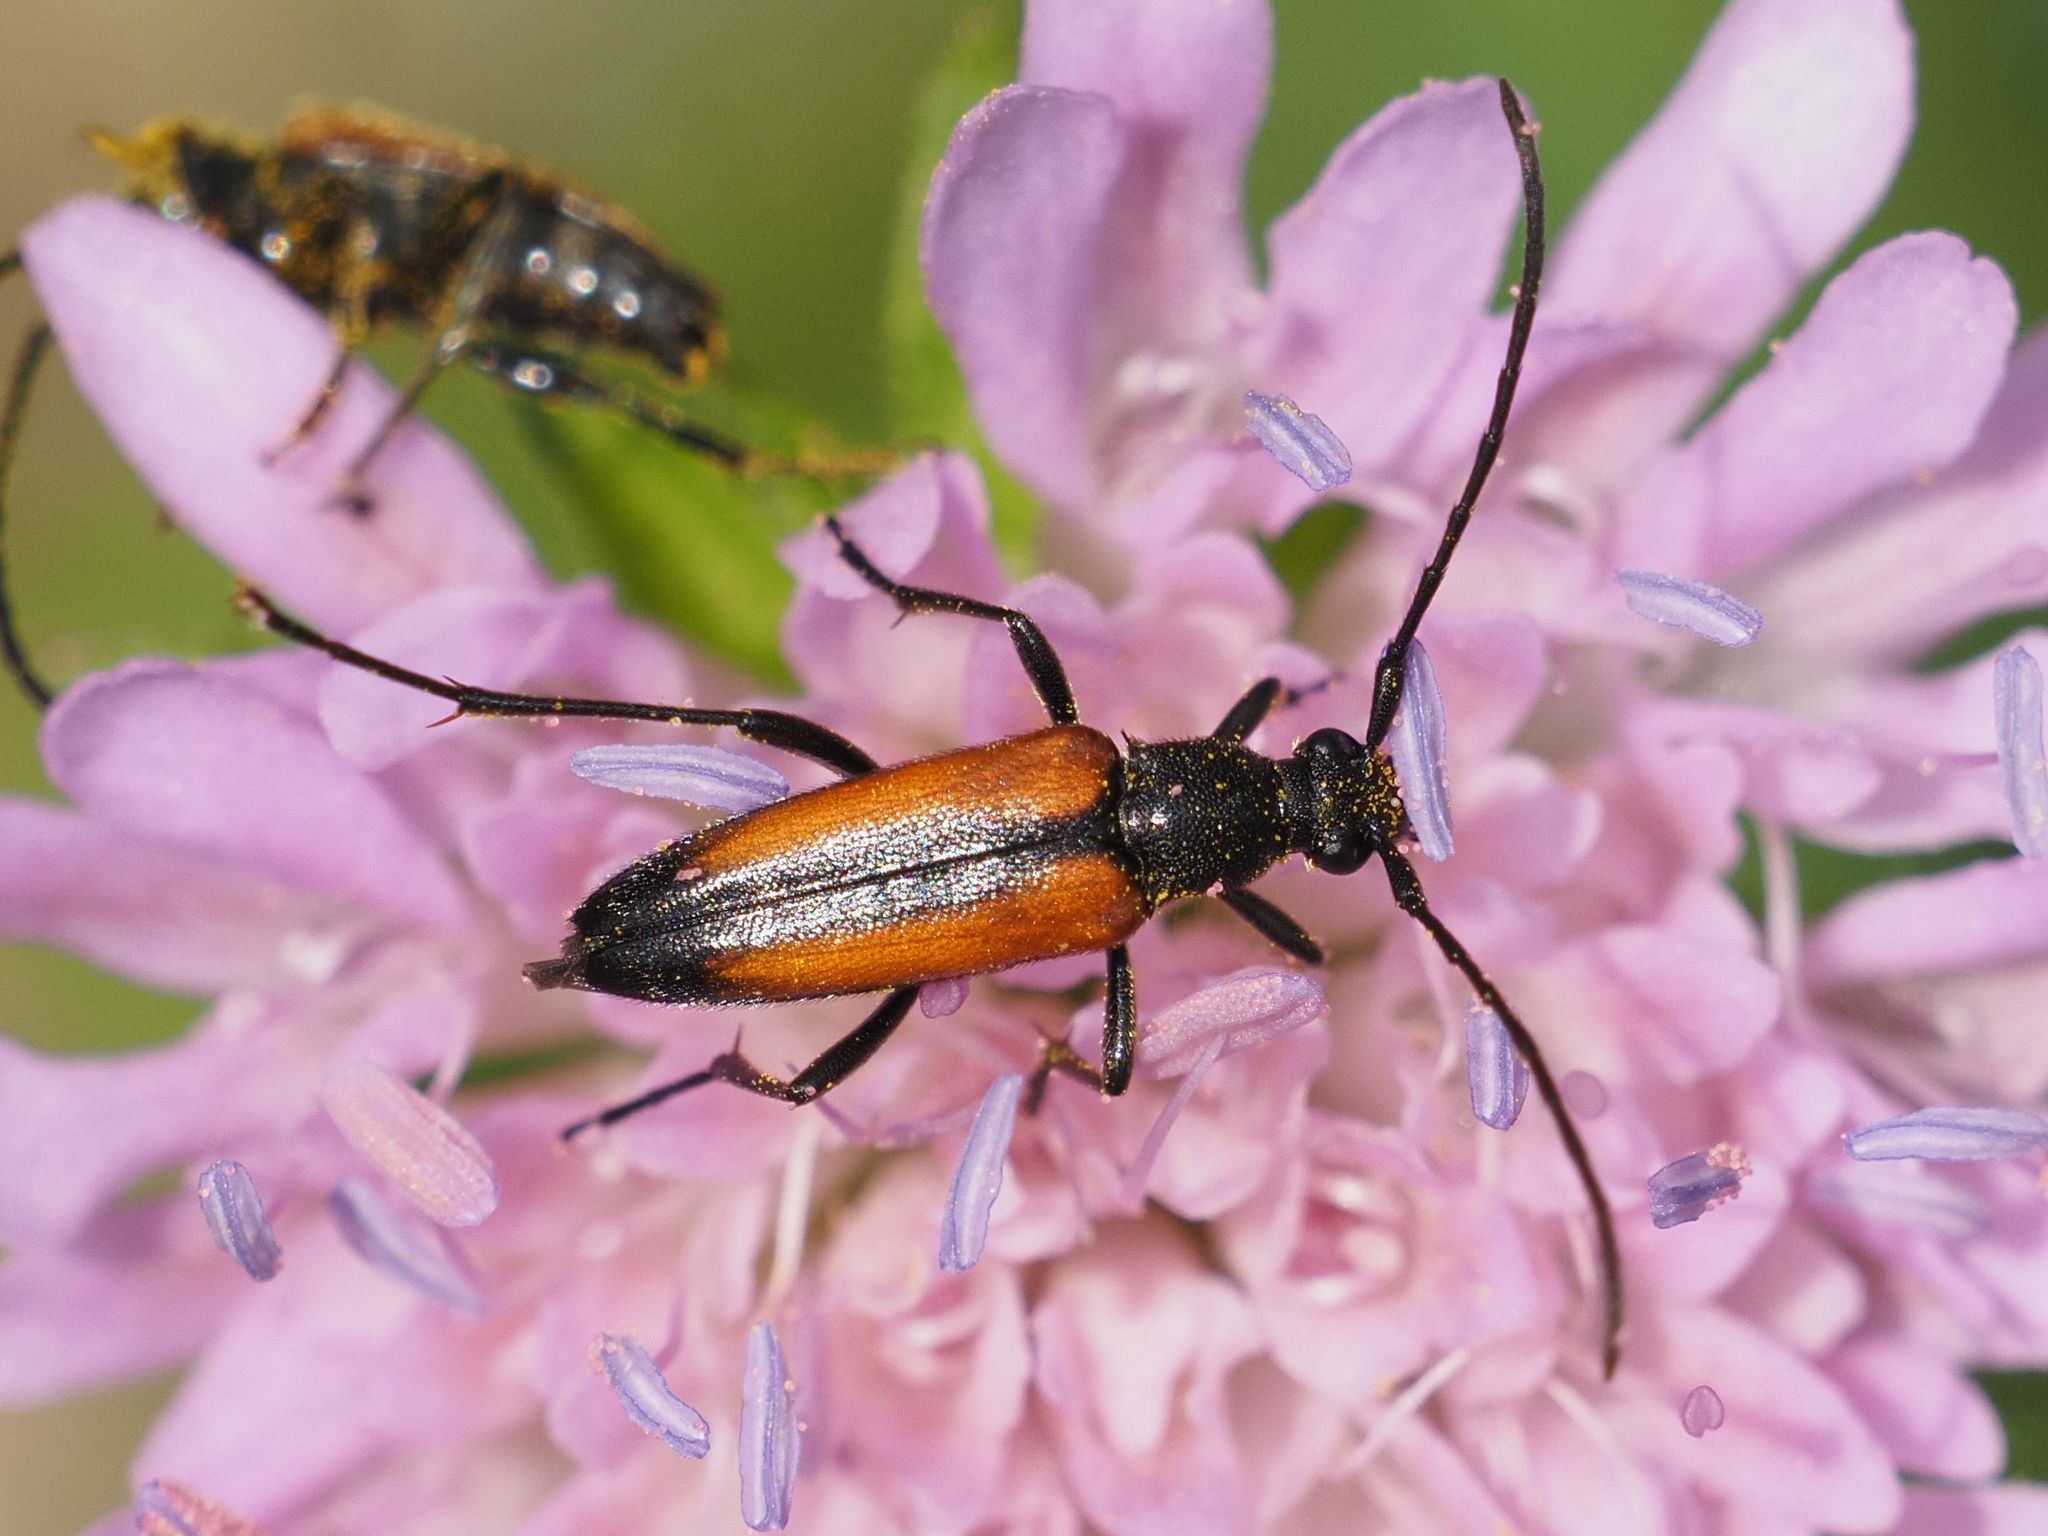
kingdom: Animalia
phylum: Arthropoda
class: Insecta
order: Coleoptera
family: Cerambycidae
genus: Stenurella
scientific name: Stenurella melanura
